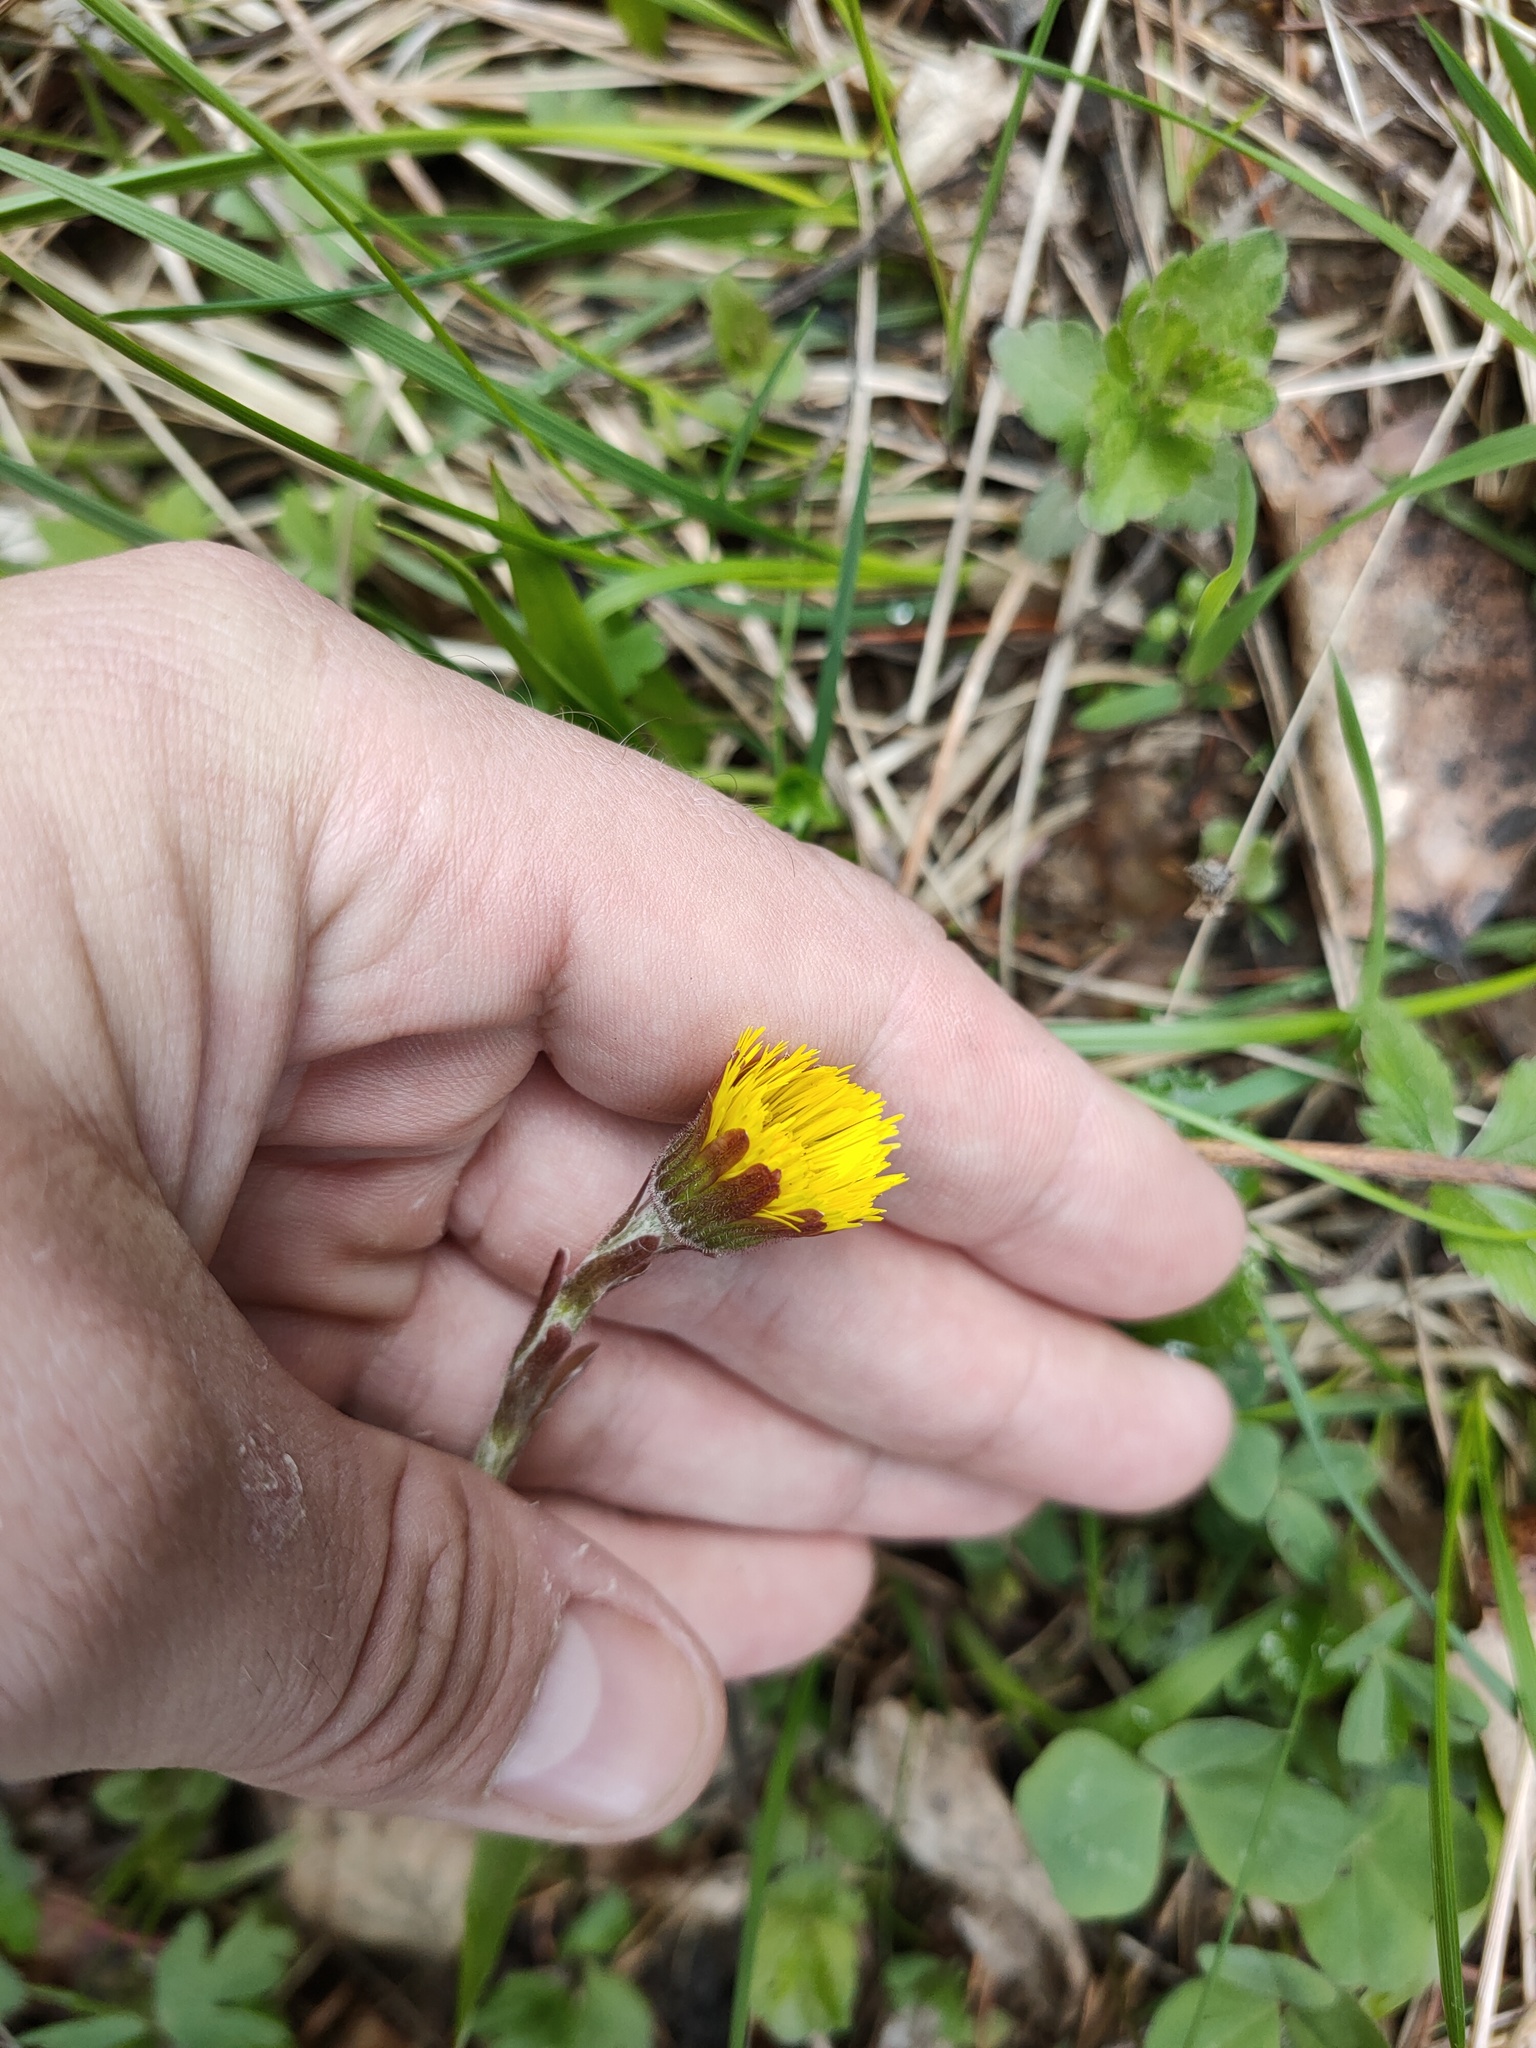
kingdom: Plantae
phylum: Tracheophyta
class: Magnoliopsida
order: Asterales
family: Asteraceae
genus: Tussilago
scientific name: Tussilago farfara
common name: Coltsfoot
